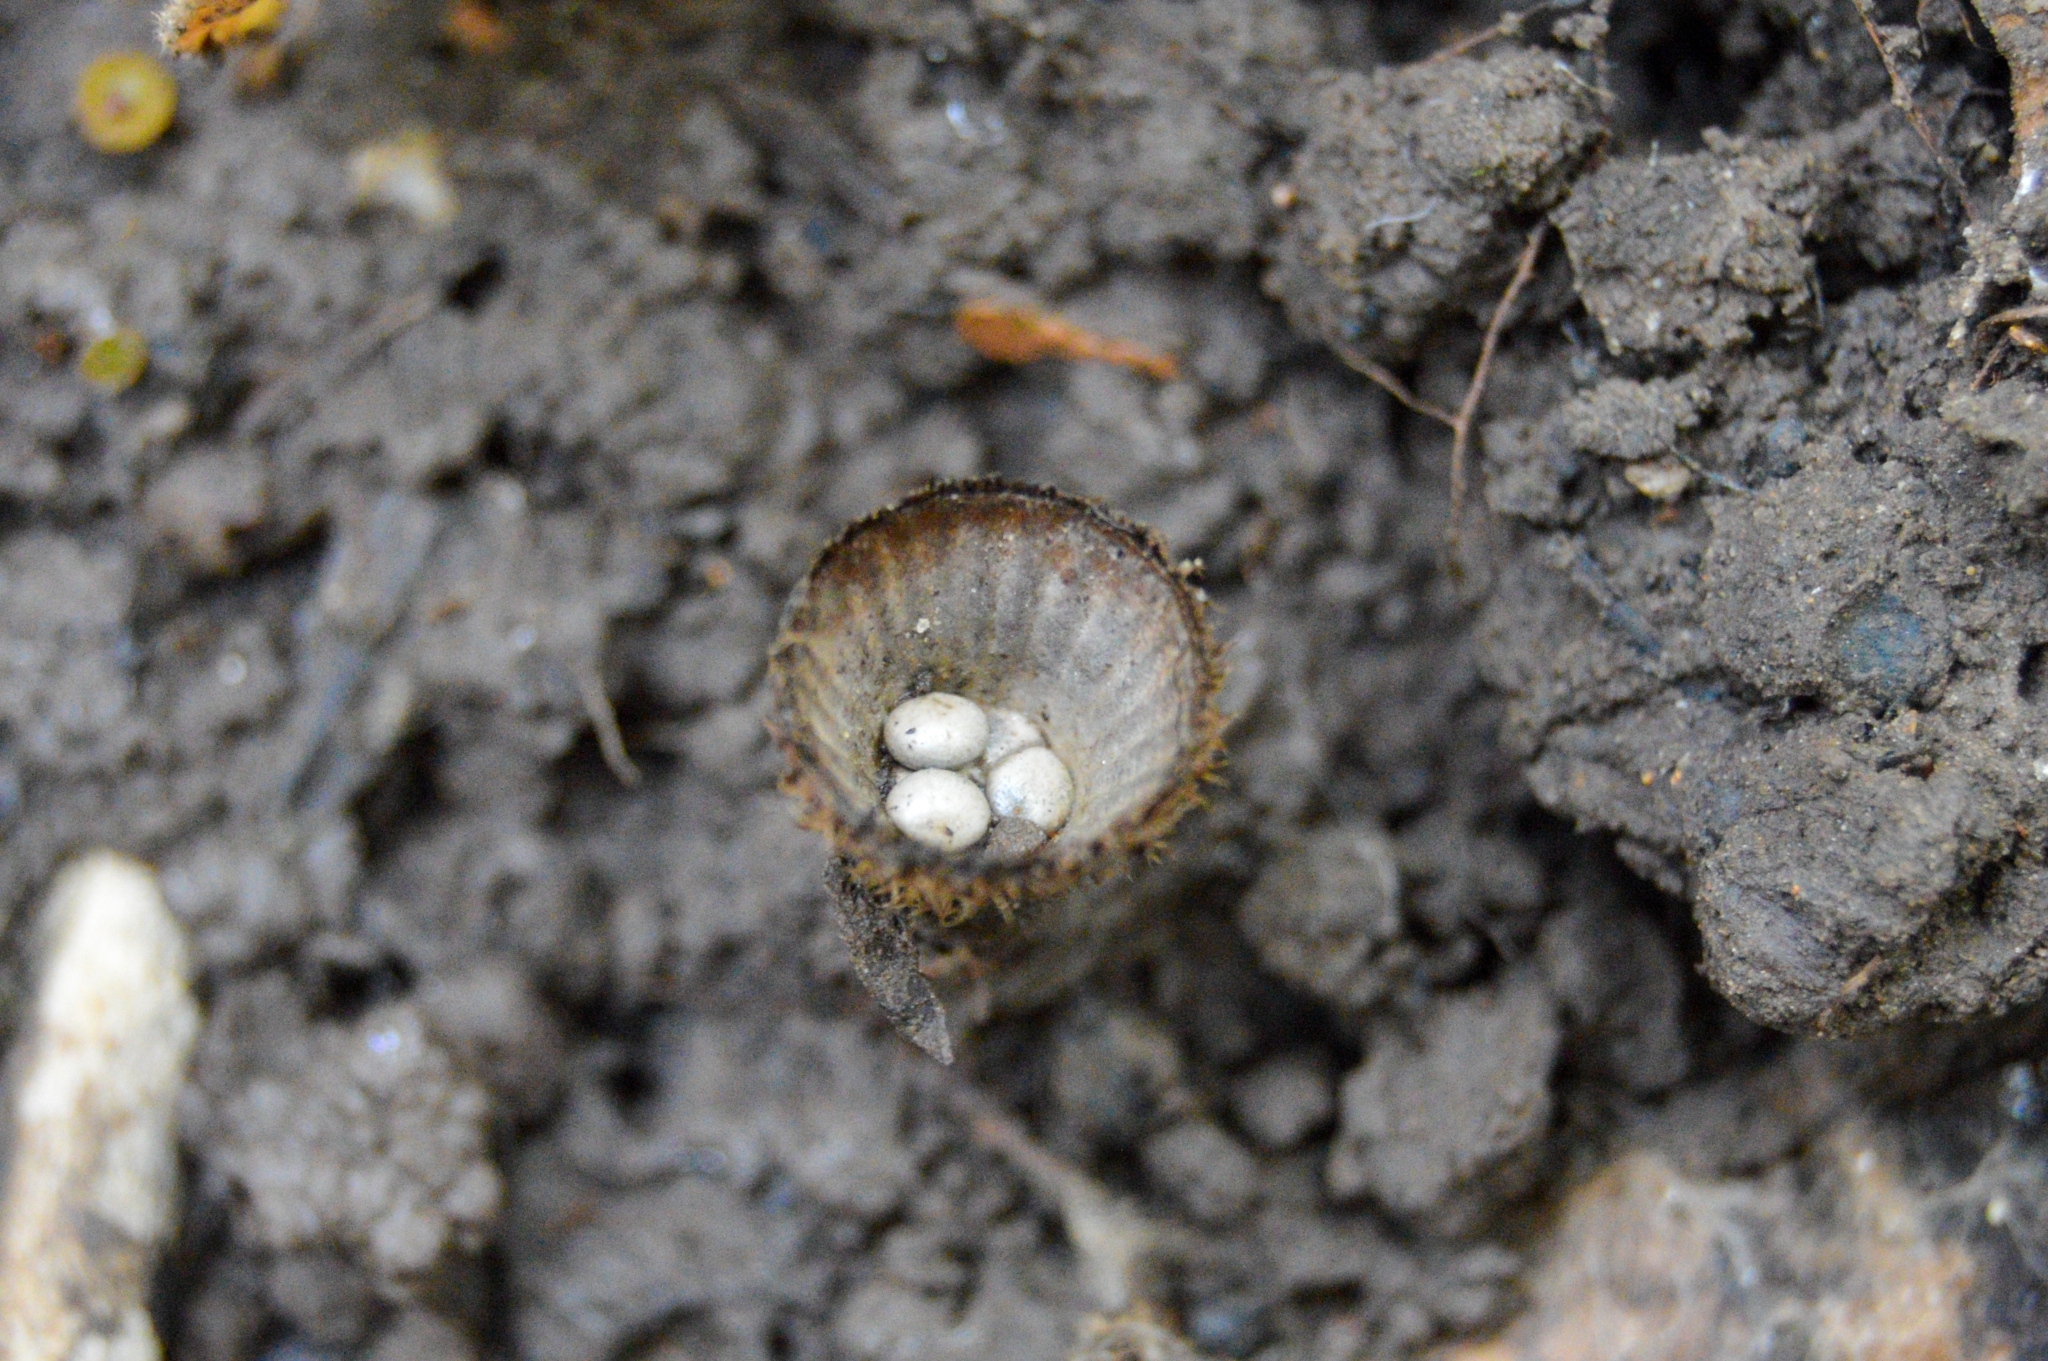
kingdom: Fungi
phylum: Basidiomycota
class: Agaricomycetes
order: Agaricales
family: Agaricaceae
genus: Cyathus
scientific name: Cyathus striatus
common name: Fluted bird's nest
